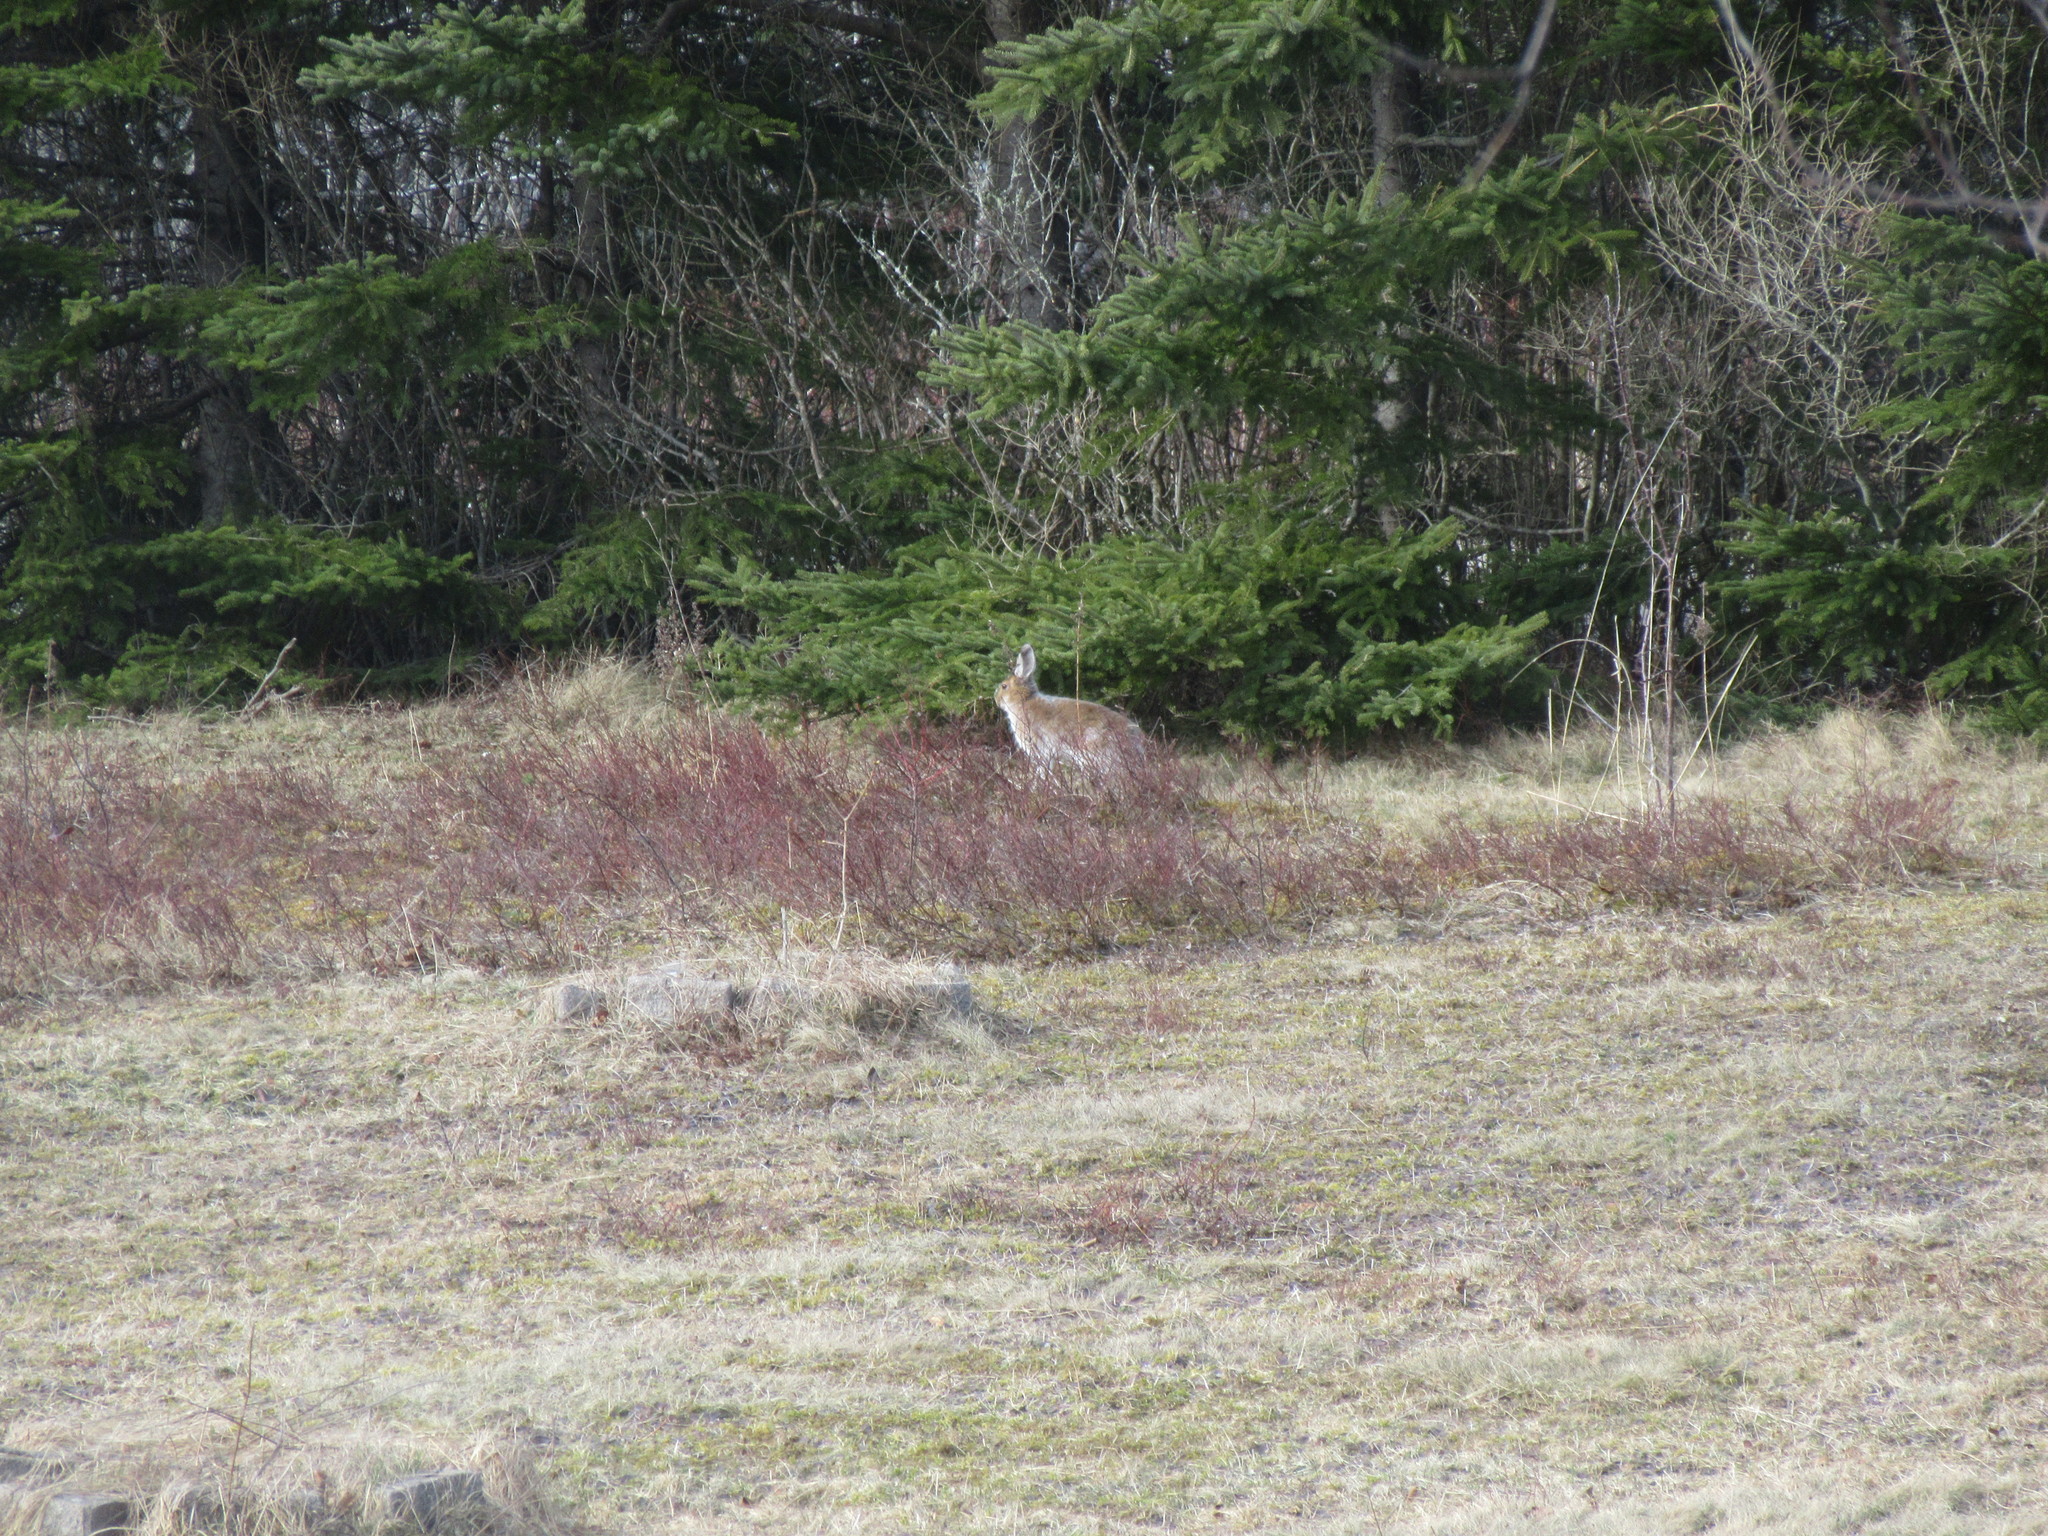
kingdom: Animalia
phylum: Chordata
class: Mammalia
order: Lagomorpha
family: Leporidae
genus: Lepus
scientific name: Lepus americanus
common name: Snowshoe hare
